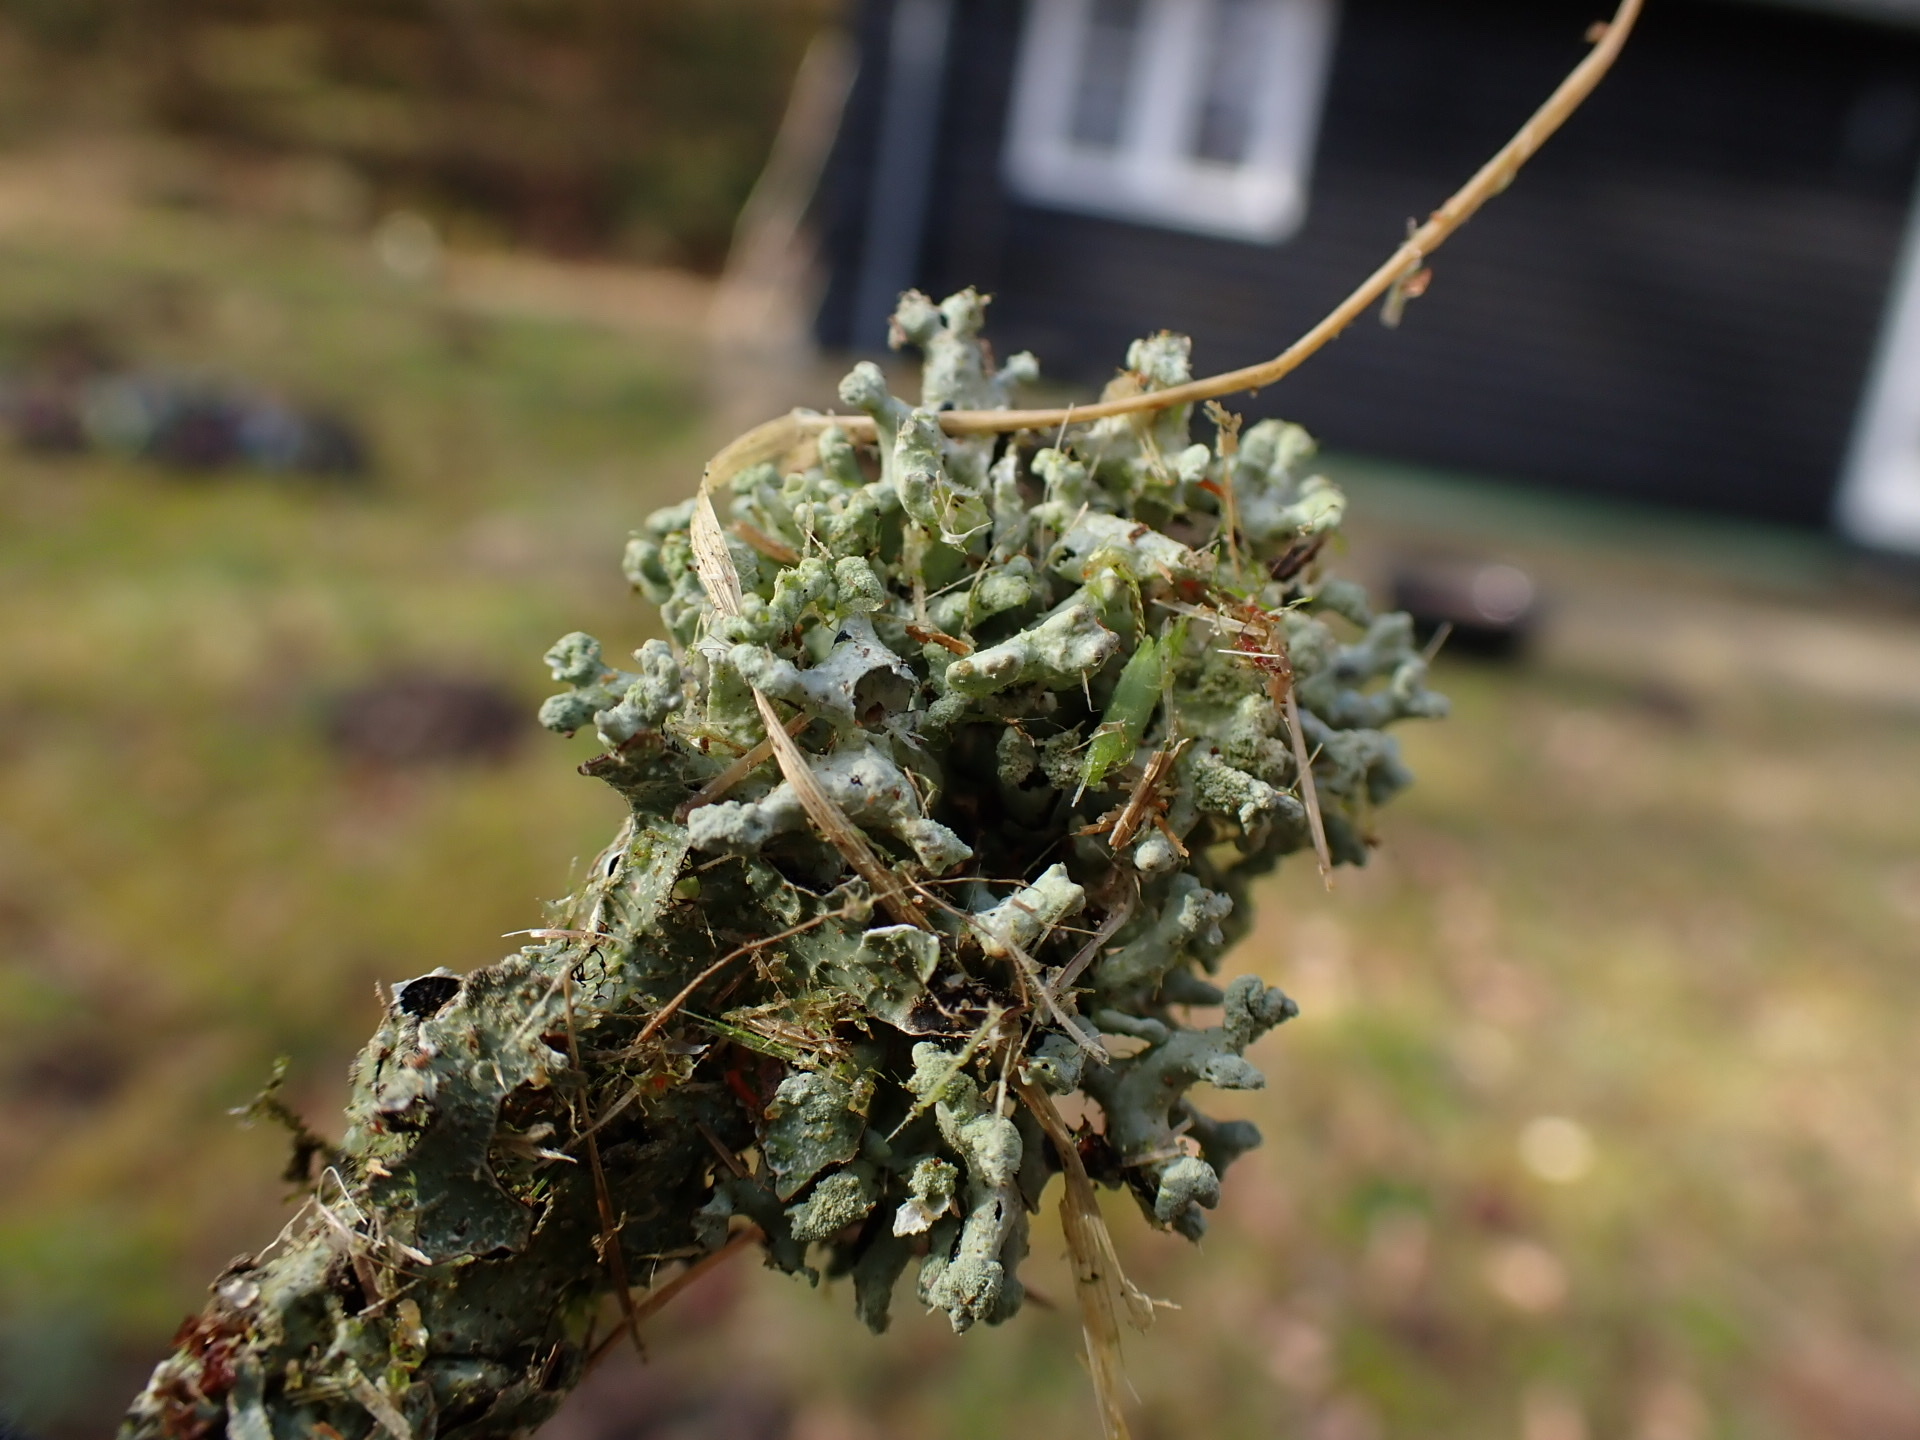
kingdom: Fungi
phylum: Ascomycota
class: Lecanoromycetes
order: Lecanorales
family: Parmeliaceae
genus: Hypogymnia
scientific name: Hypogymnia tubulosa
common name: Powder-headed tube lichen
